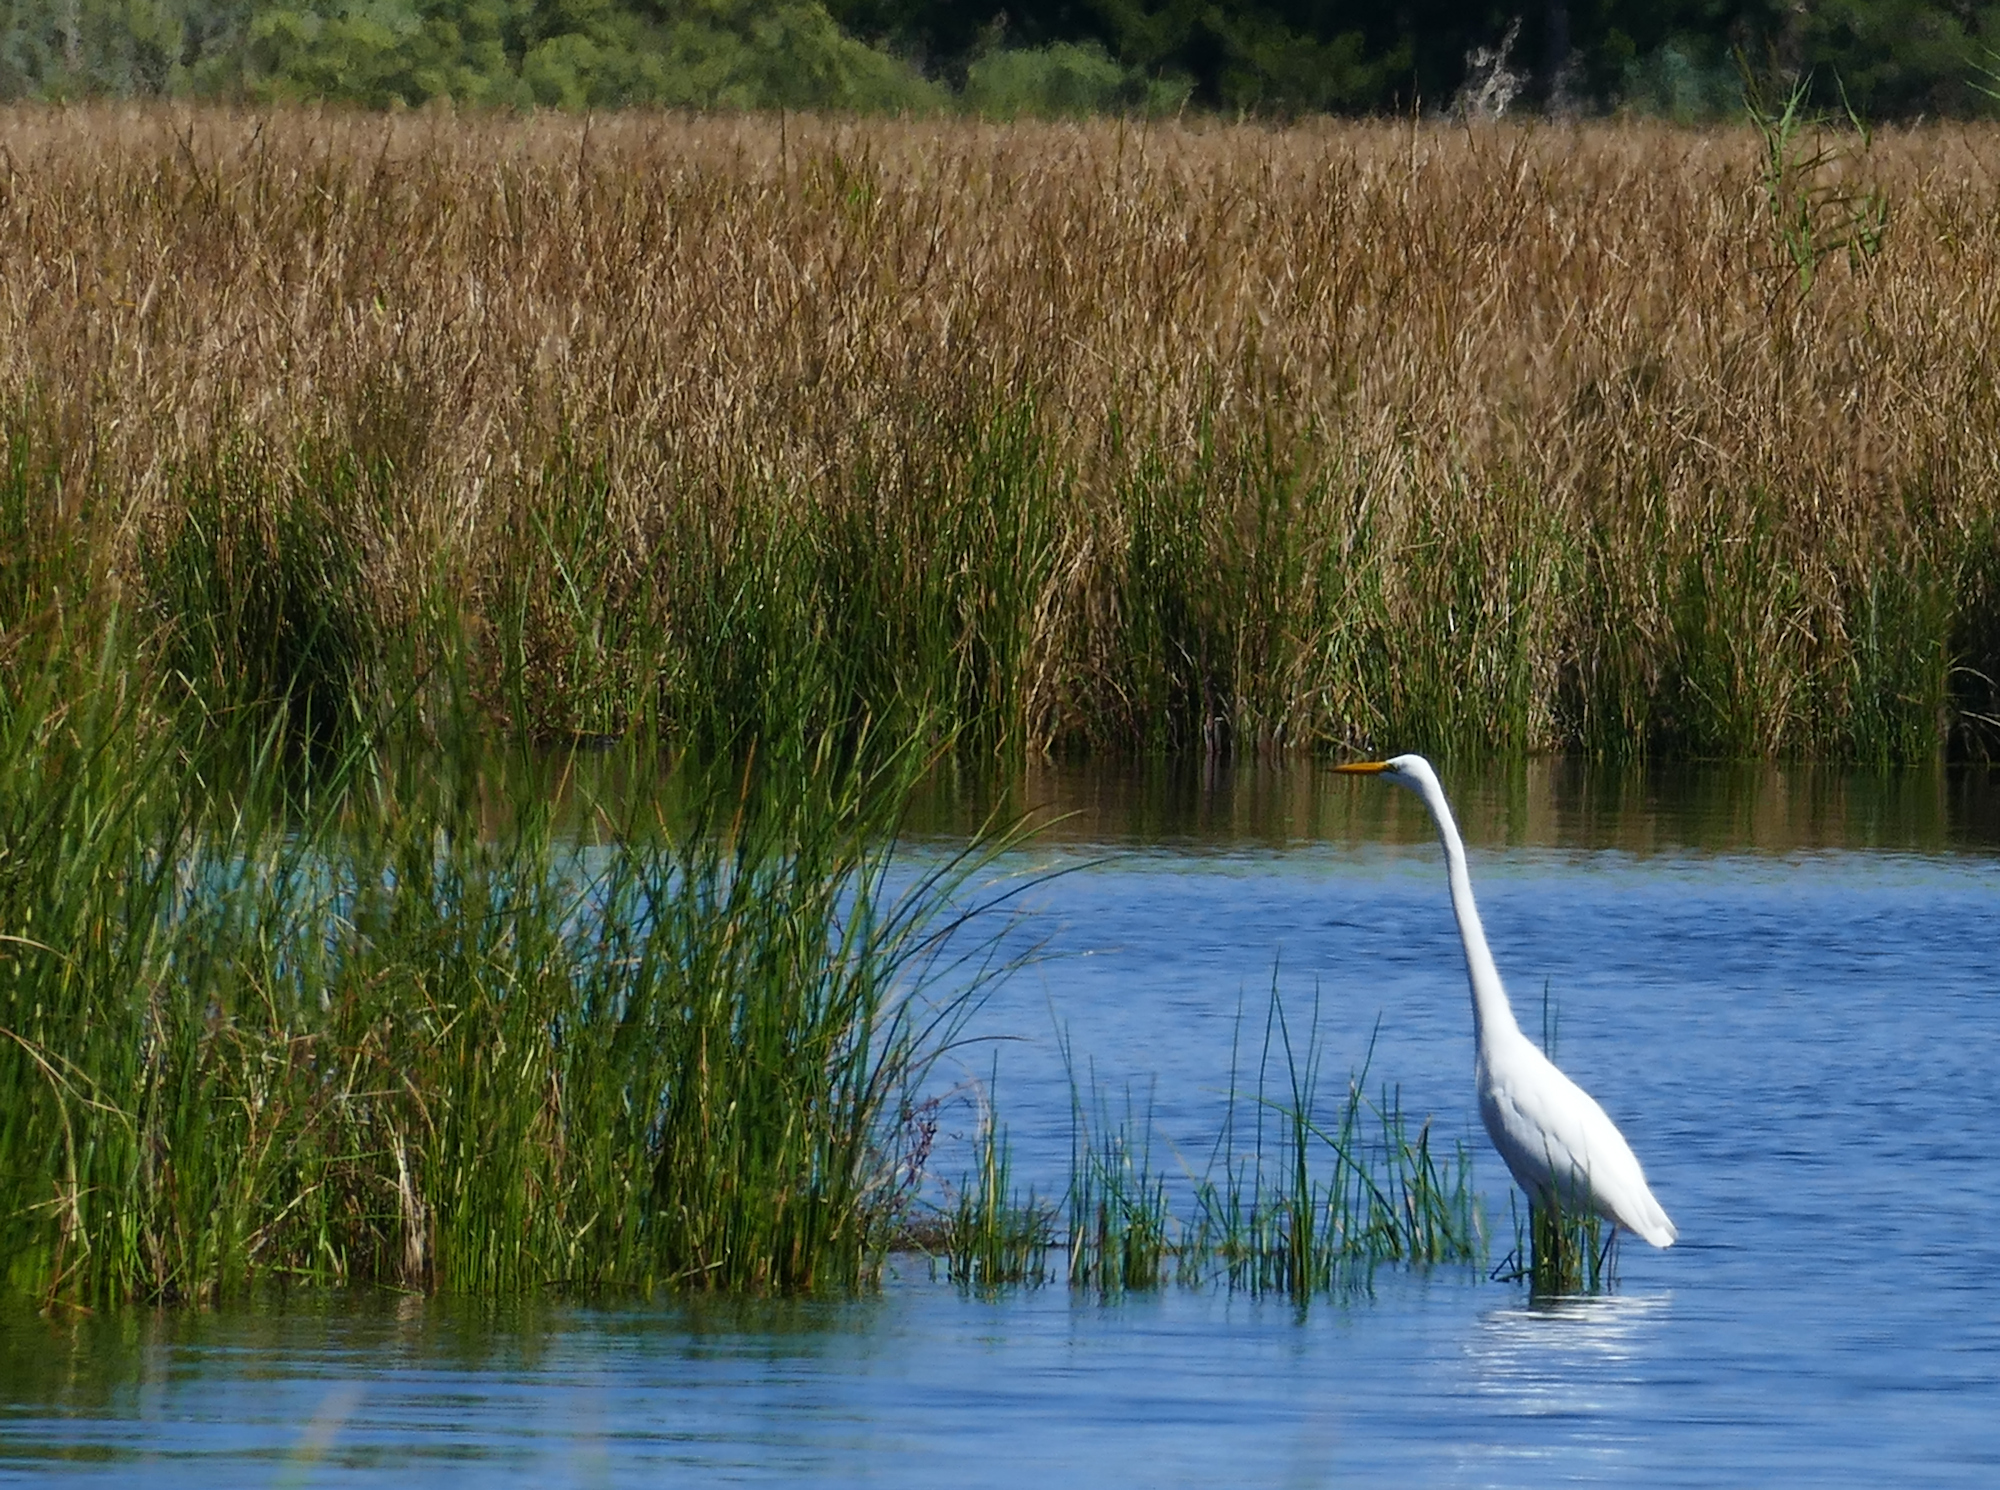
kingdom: Animalia
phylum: Chordata
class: Aves
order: Pelecaniformes
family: Ardeidae
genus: Ardea
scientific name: Ardea alba
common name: Great egret
